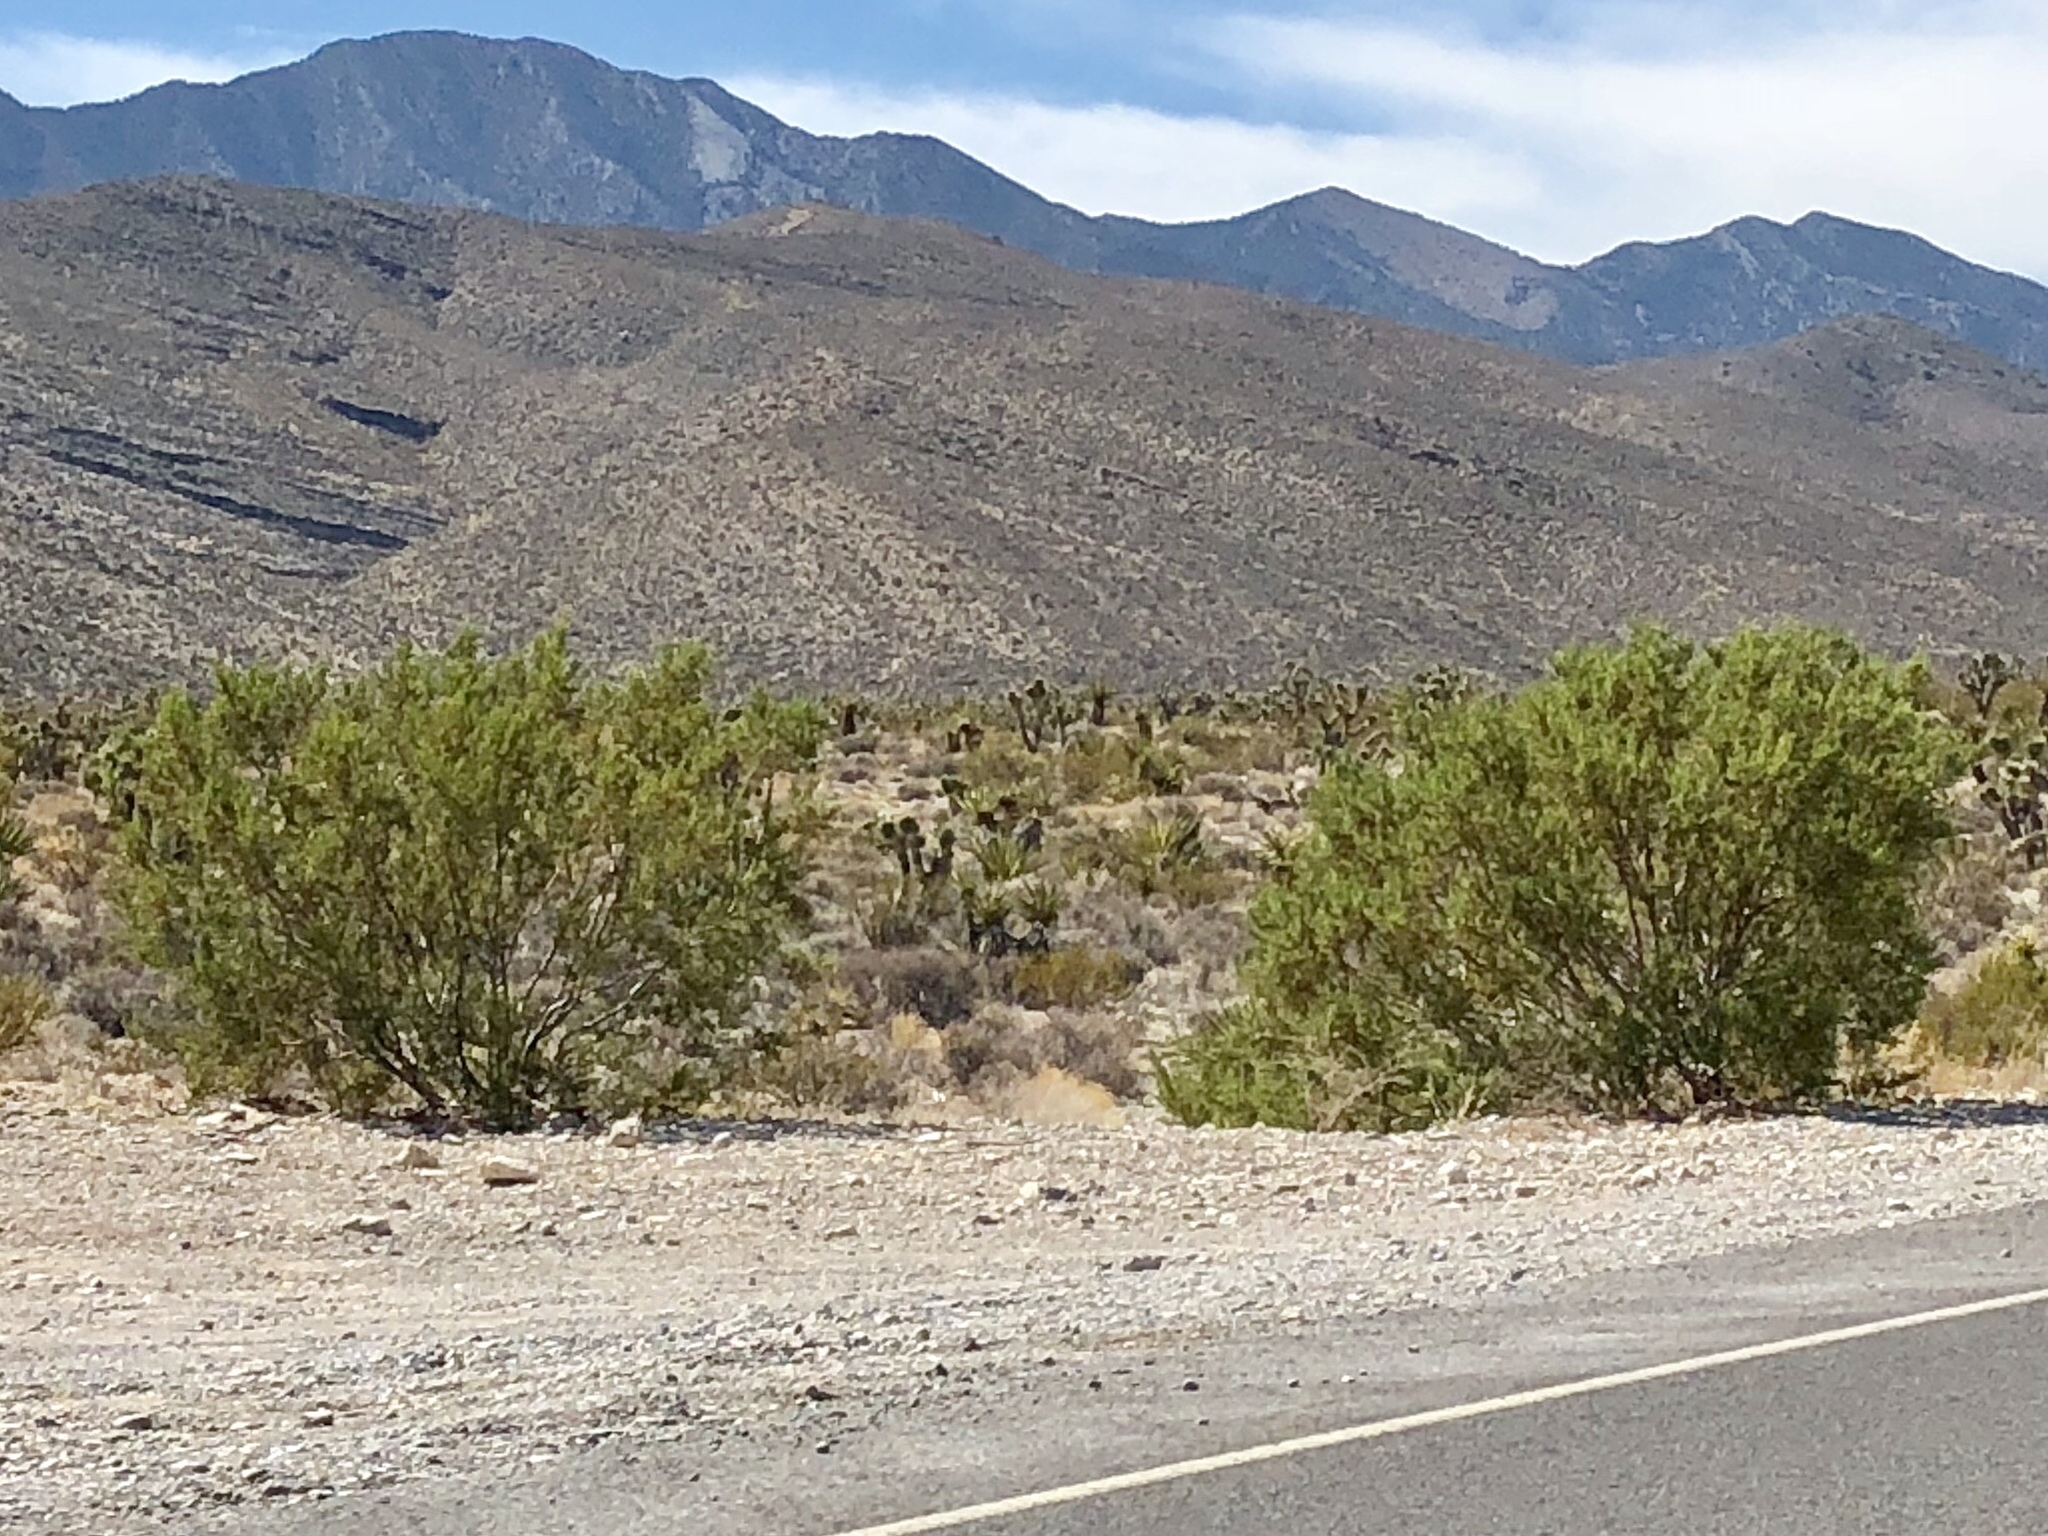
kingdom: Plantae
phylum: Tracheophyta
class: Magnoliopsida
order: Zygophyllales
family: Zygophyllaceae
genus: Larrea
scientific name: Larrea tridentata
